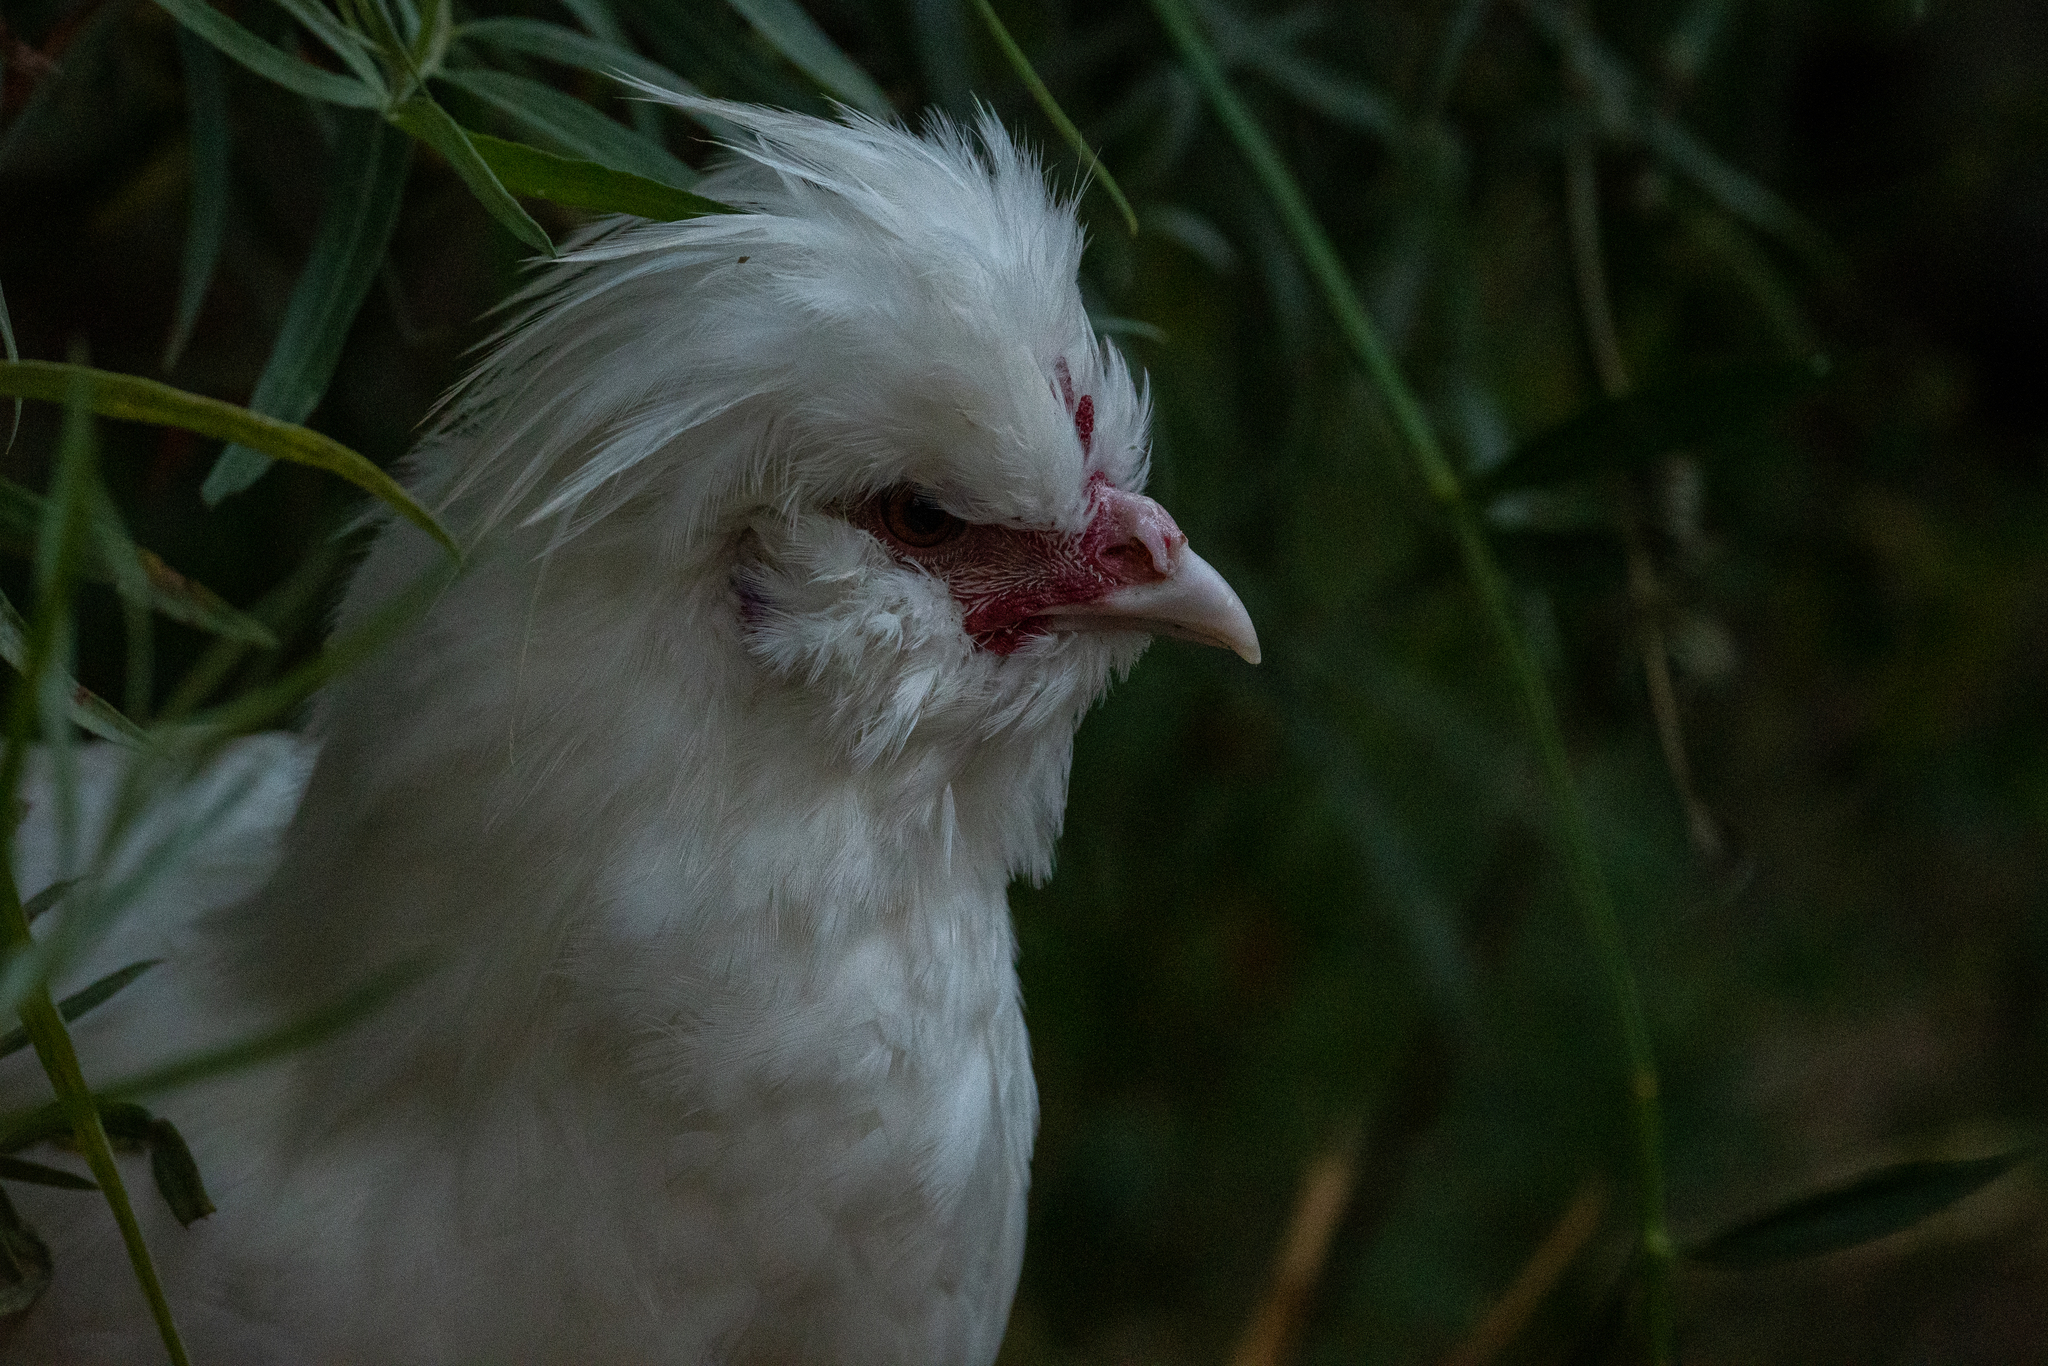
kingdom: Animalia
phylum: Chordata
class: Aves
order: Galliformes
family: Phasianidae
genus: Gallus
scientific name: Gallus gallus
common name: Red junglefowl
